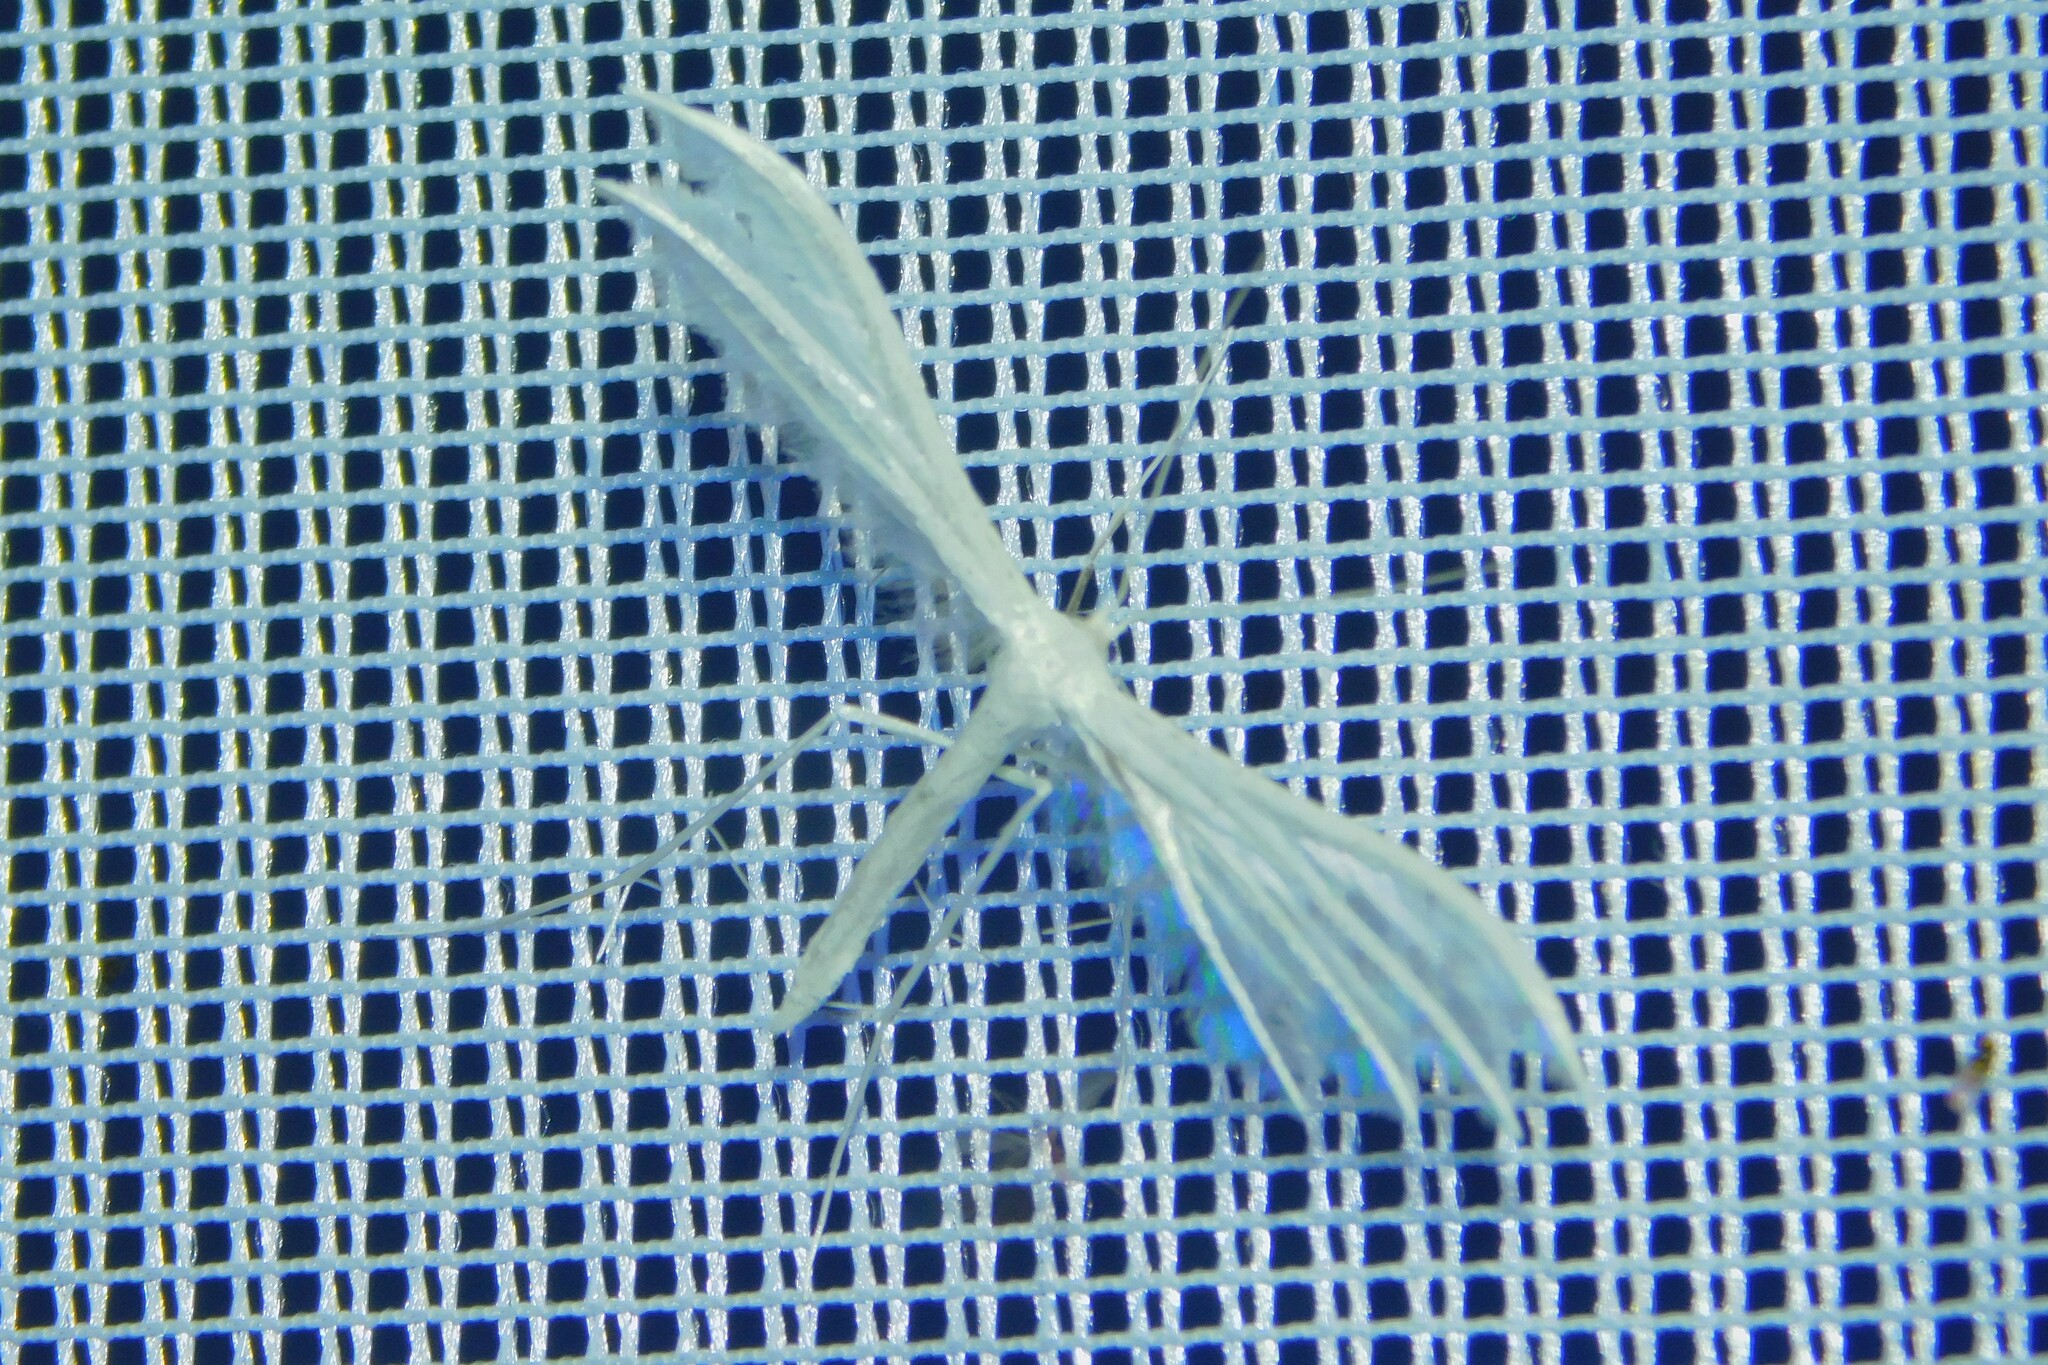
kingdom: Animalia
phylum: Arthropoda
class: Insecta
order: Lepidoptera
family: Pterophoridae
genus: Pterophorus
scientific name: Pterophorus pentadactyla
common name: White plume moth
